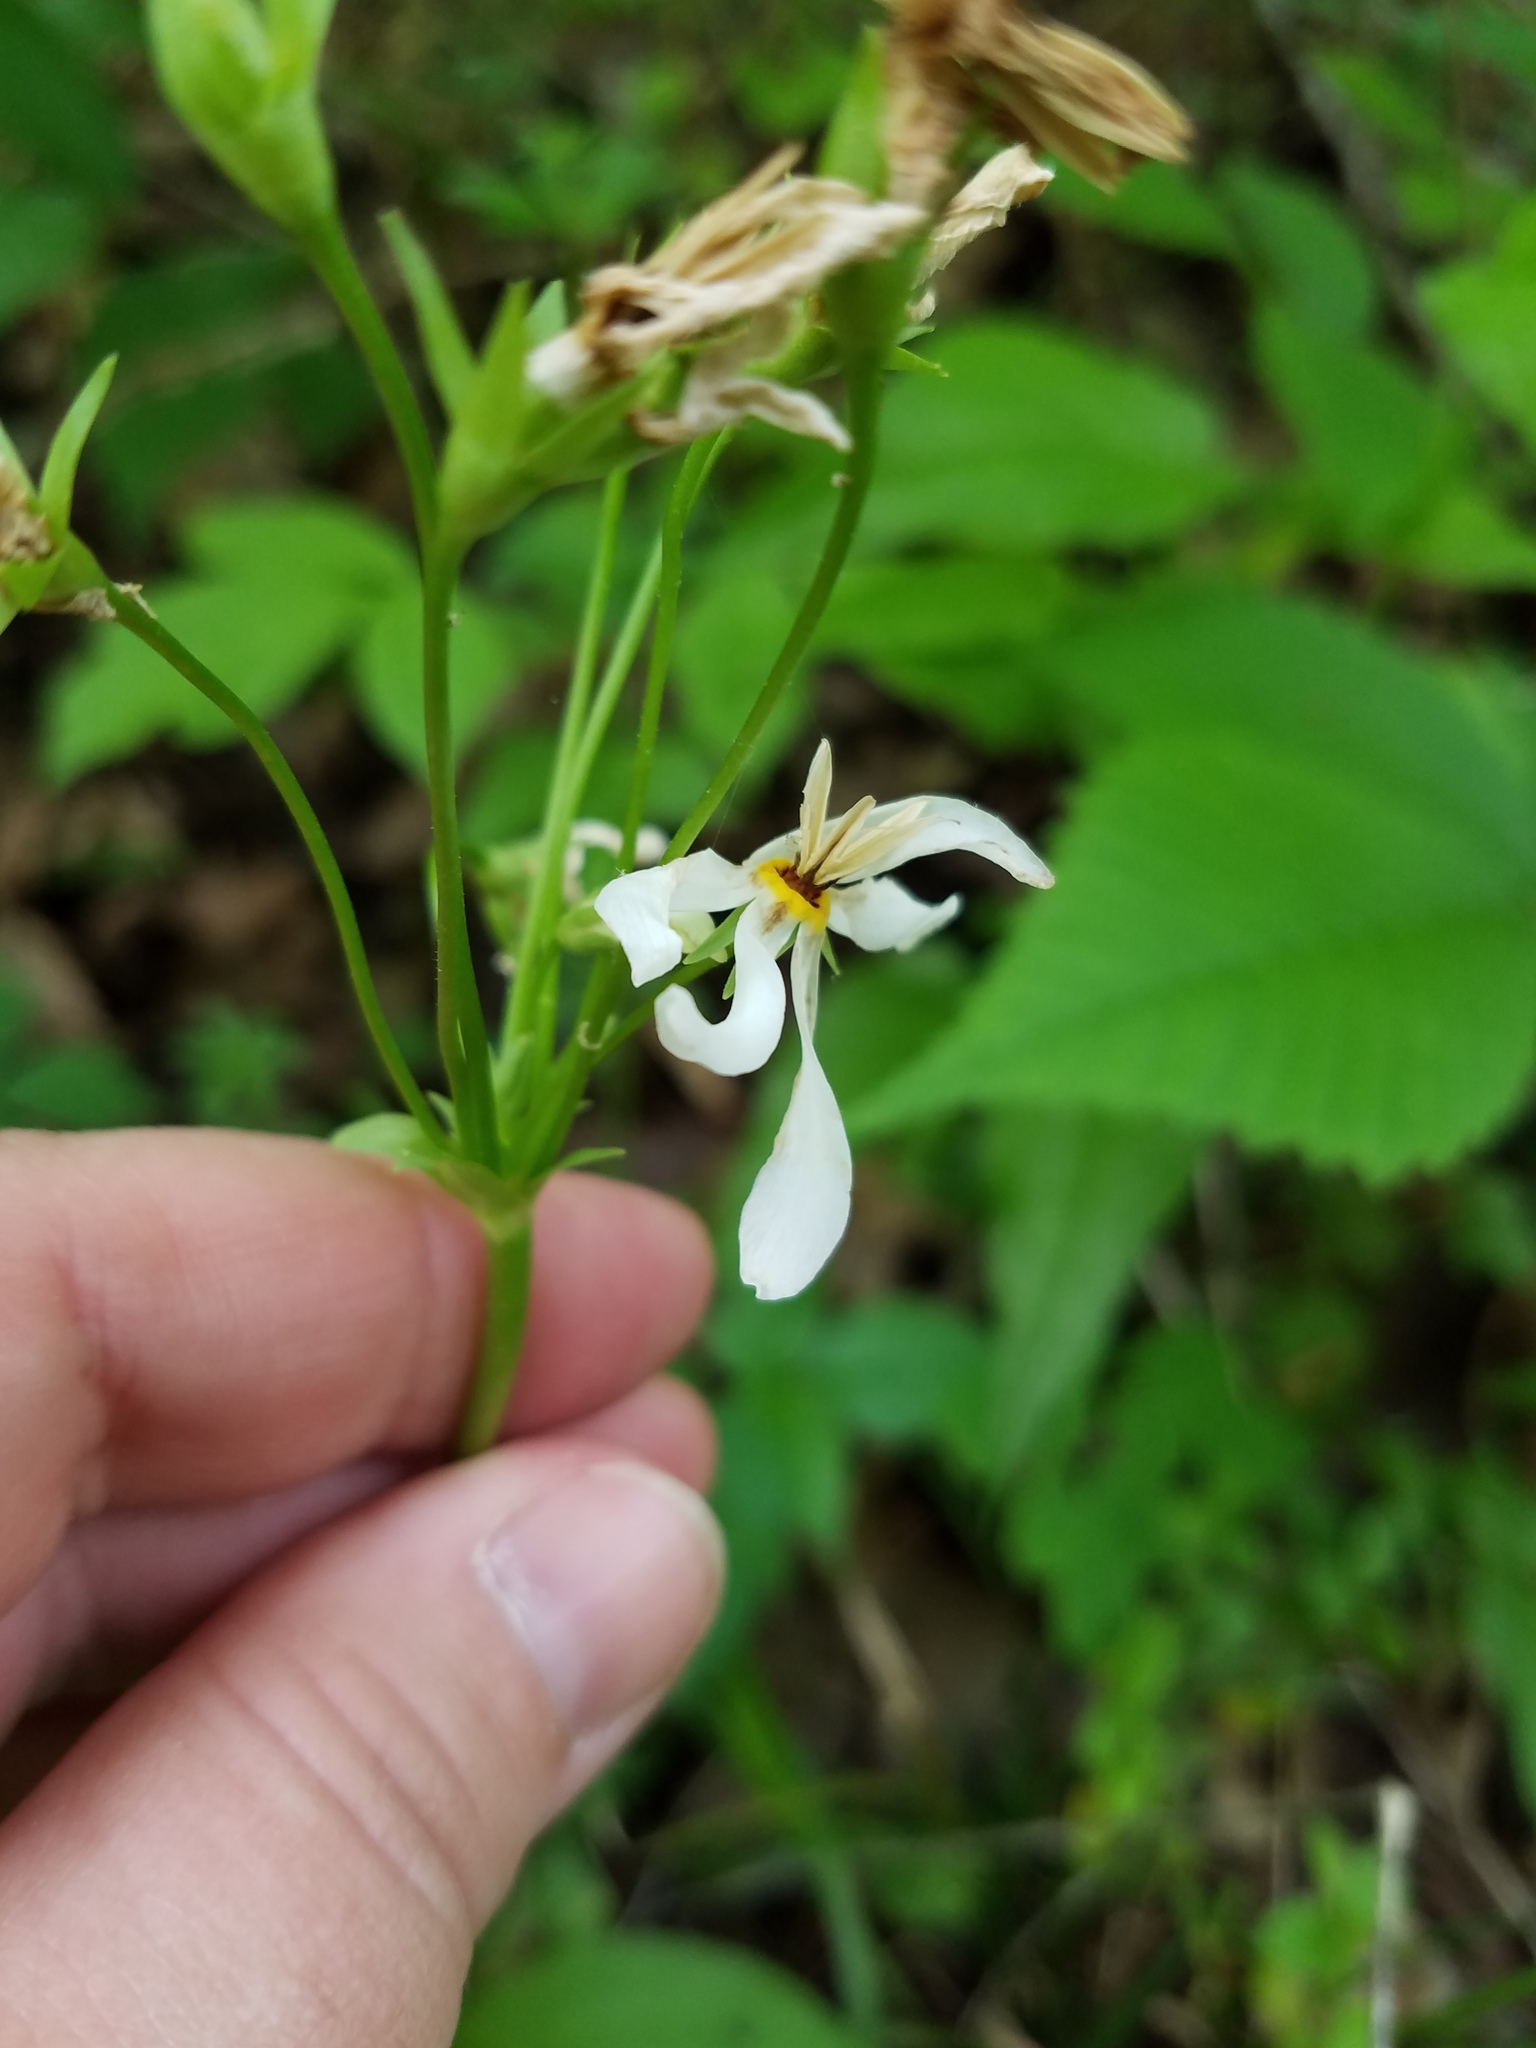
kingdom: Plantae
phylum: Tracheophyta
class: Magnoliopsida
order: Ericales
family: Primulaceae
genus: Dodecatheon
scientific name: Dodecatheon meadia
